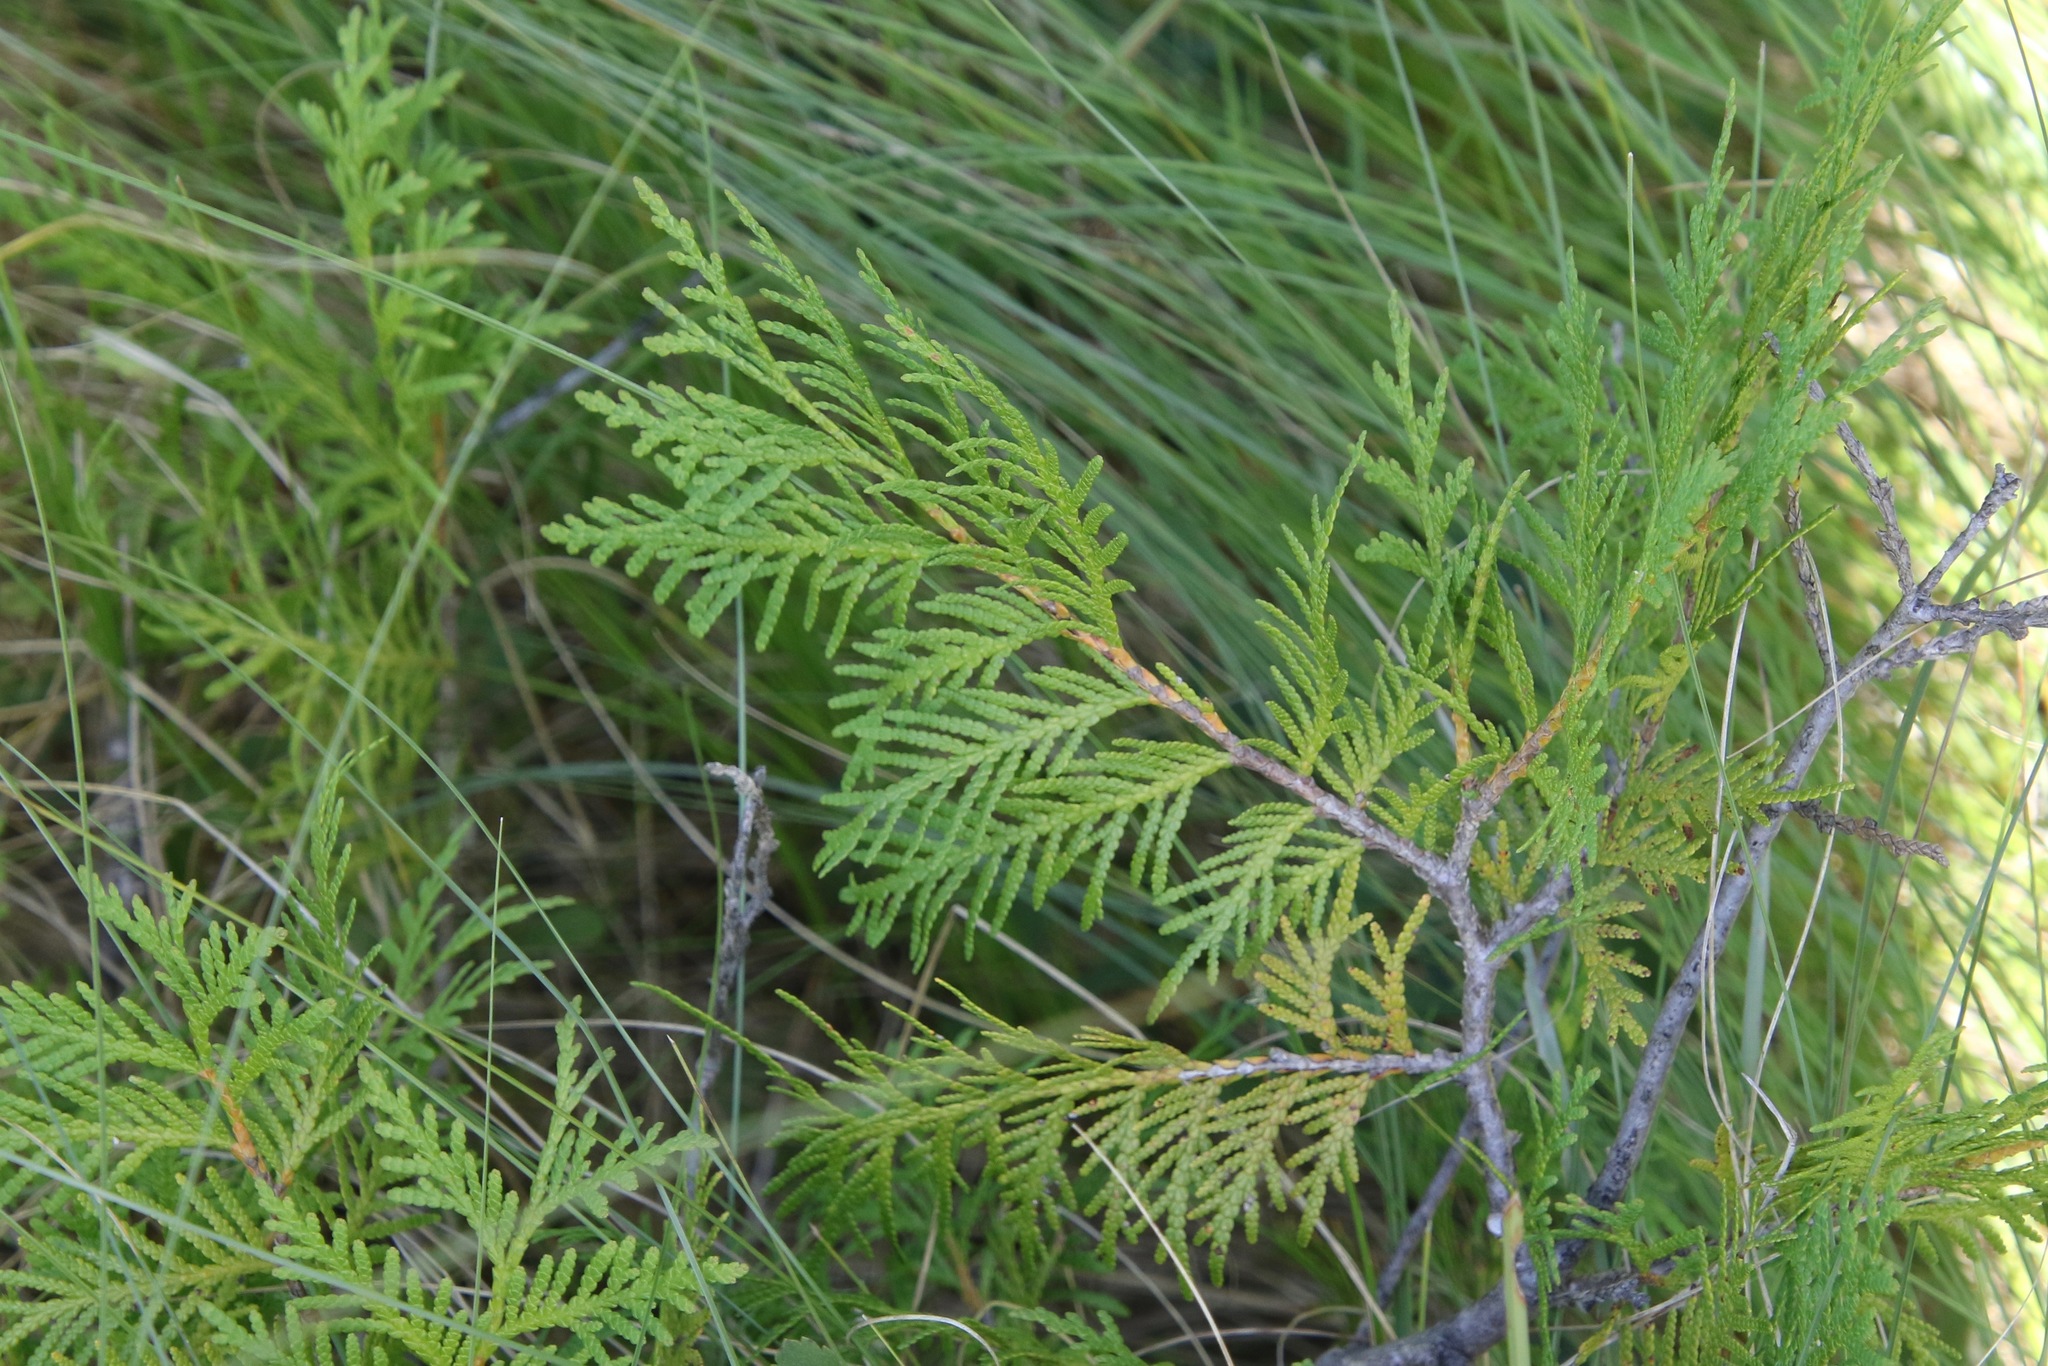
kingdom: Plantae
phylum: Tracheophyta
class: Pinopsida
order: Pinales
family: Cupressaceae
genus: Thuja
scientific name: Thuja occidentalis
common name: Northern white-cedar
